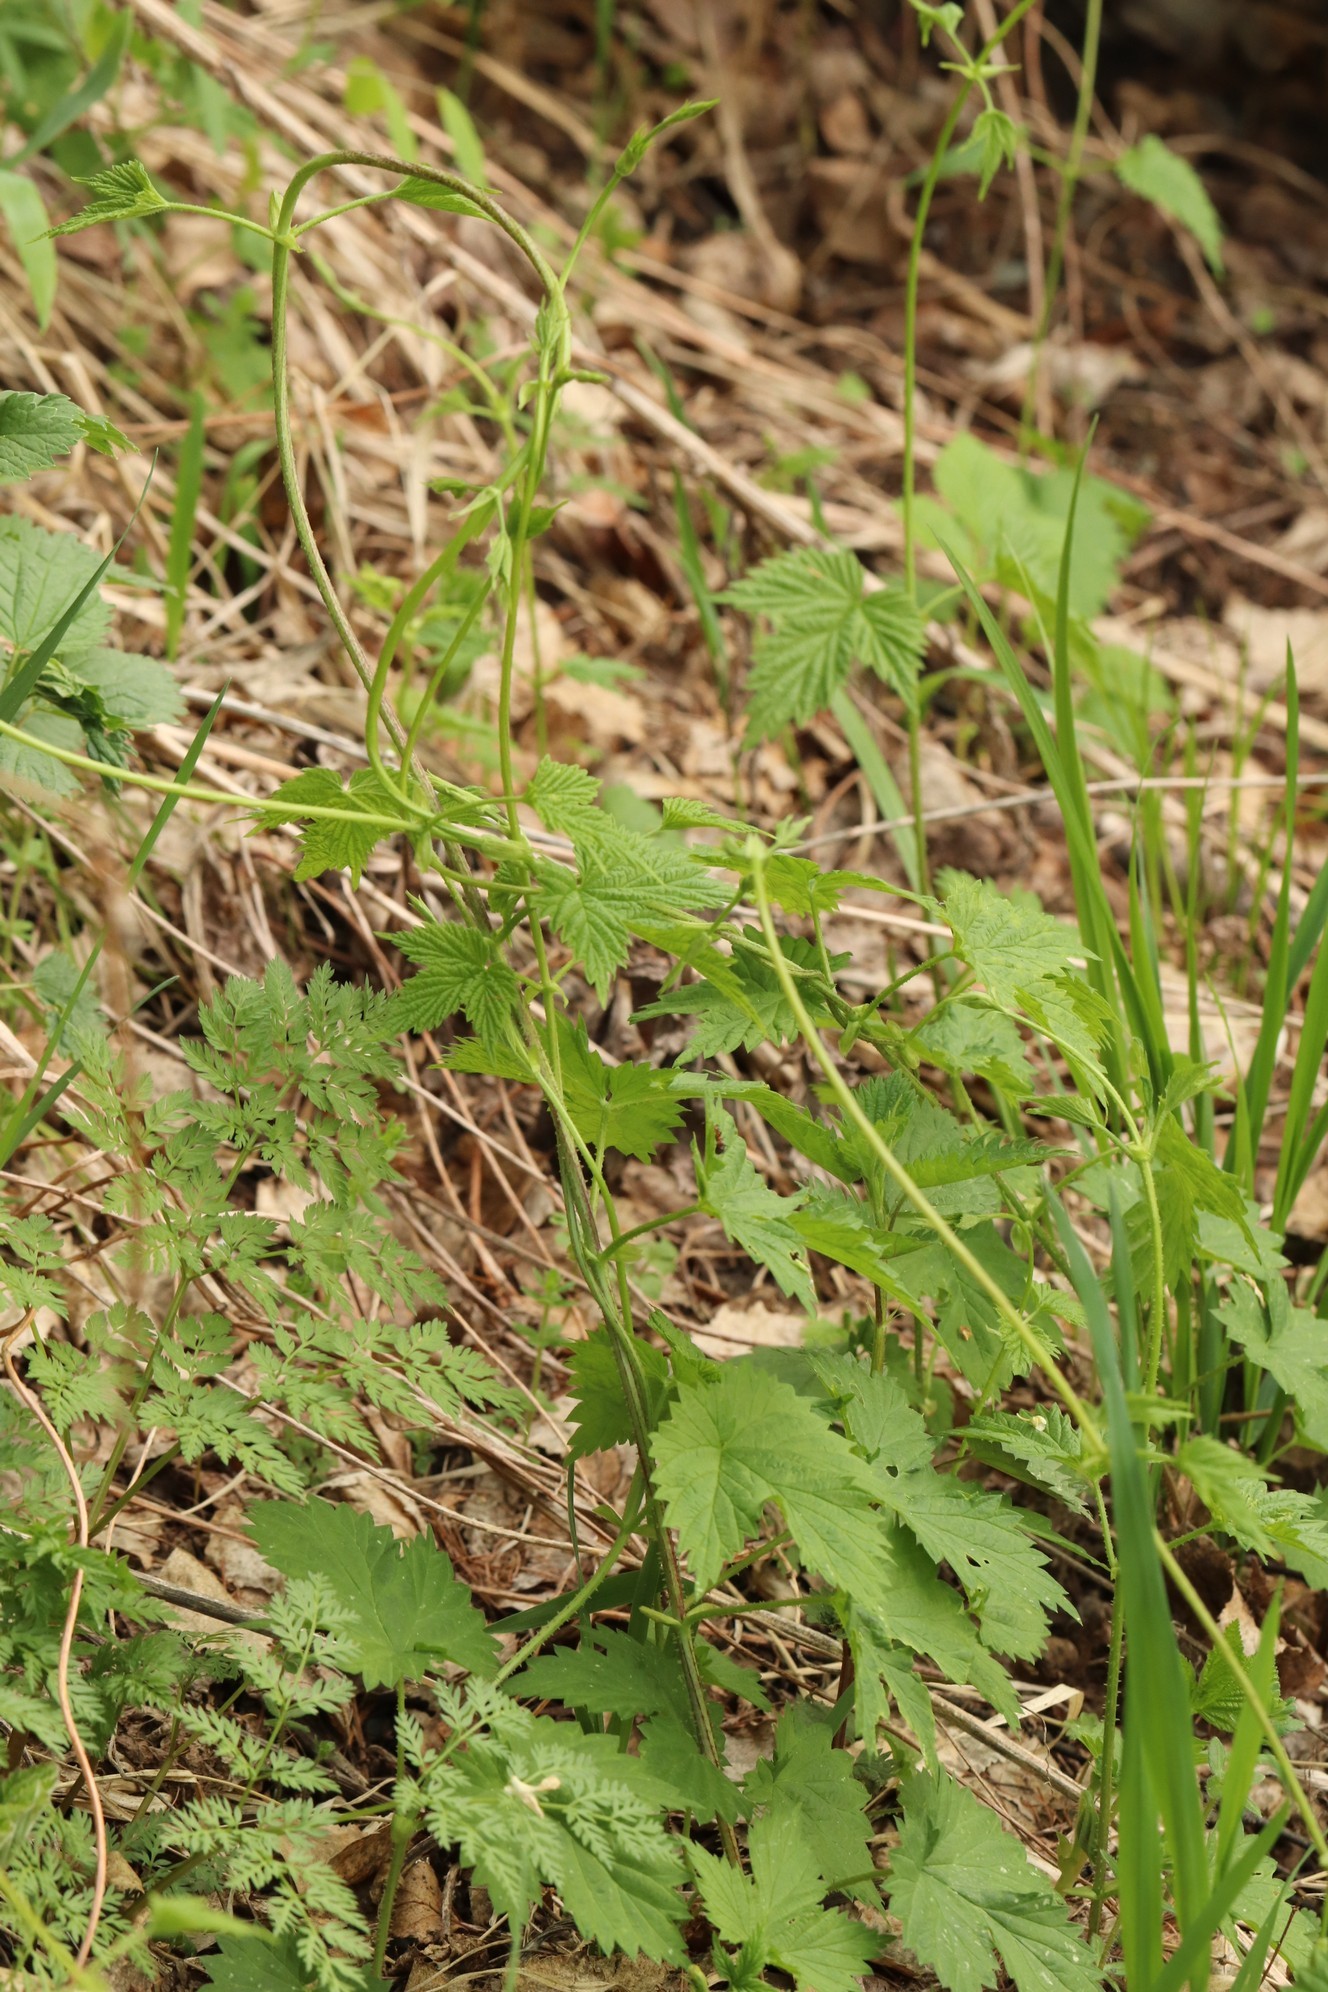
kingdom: Plantae
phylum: Tracheophyta
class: Magnoliopsida
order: Rosales
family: Cannabaceae
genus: Humulus
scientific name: Humulus lupulus
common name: Hop
